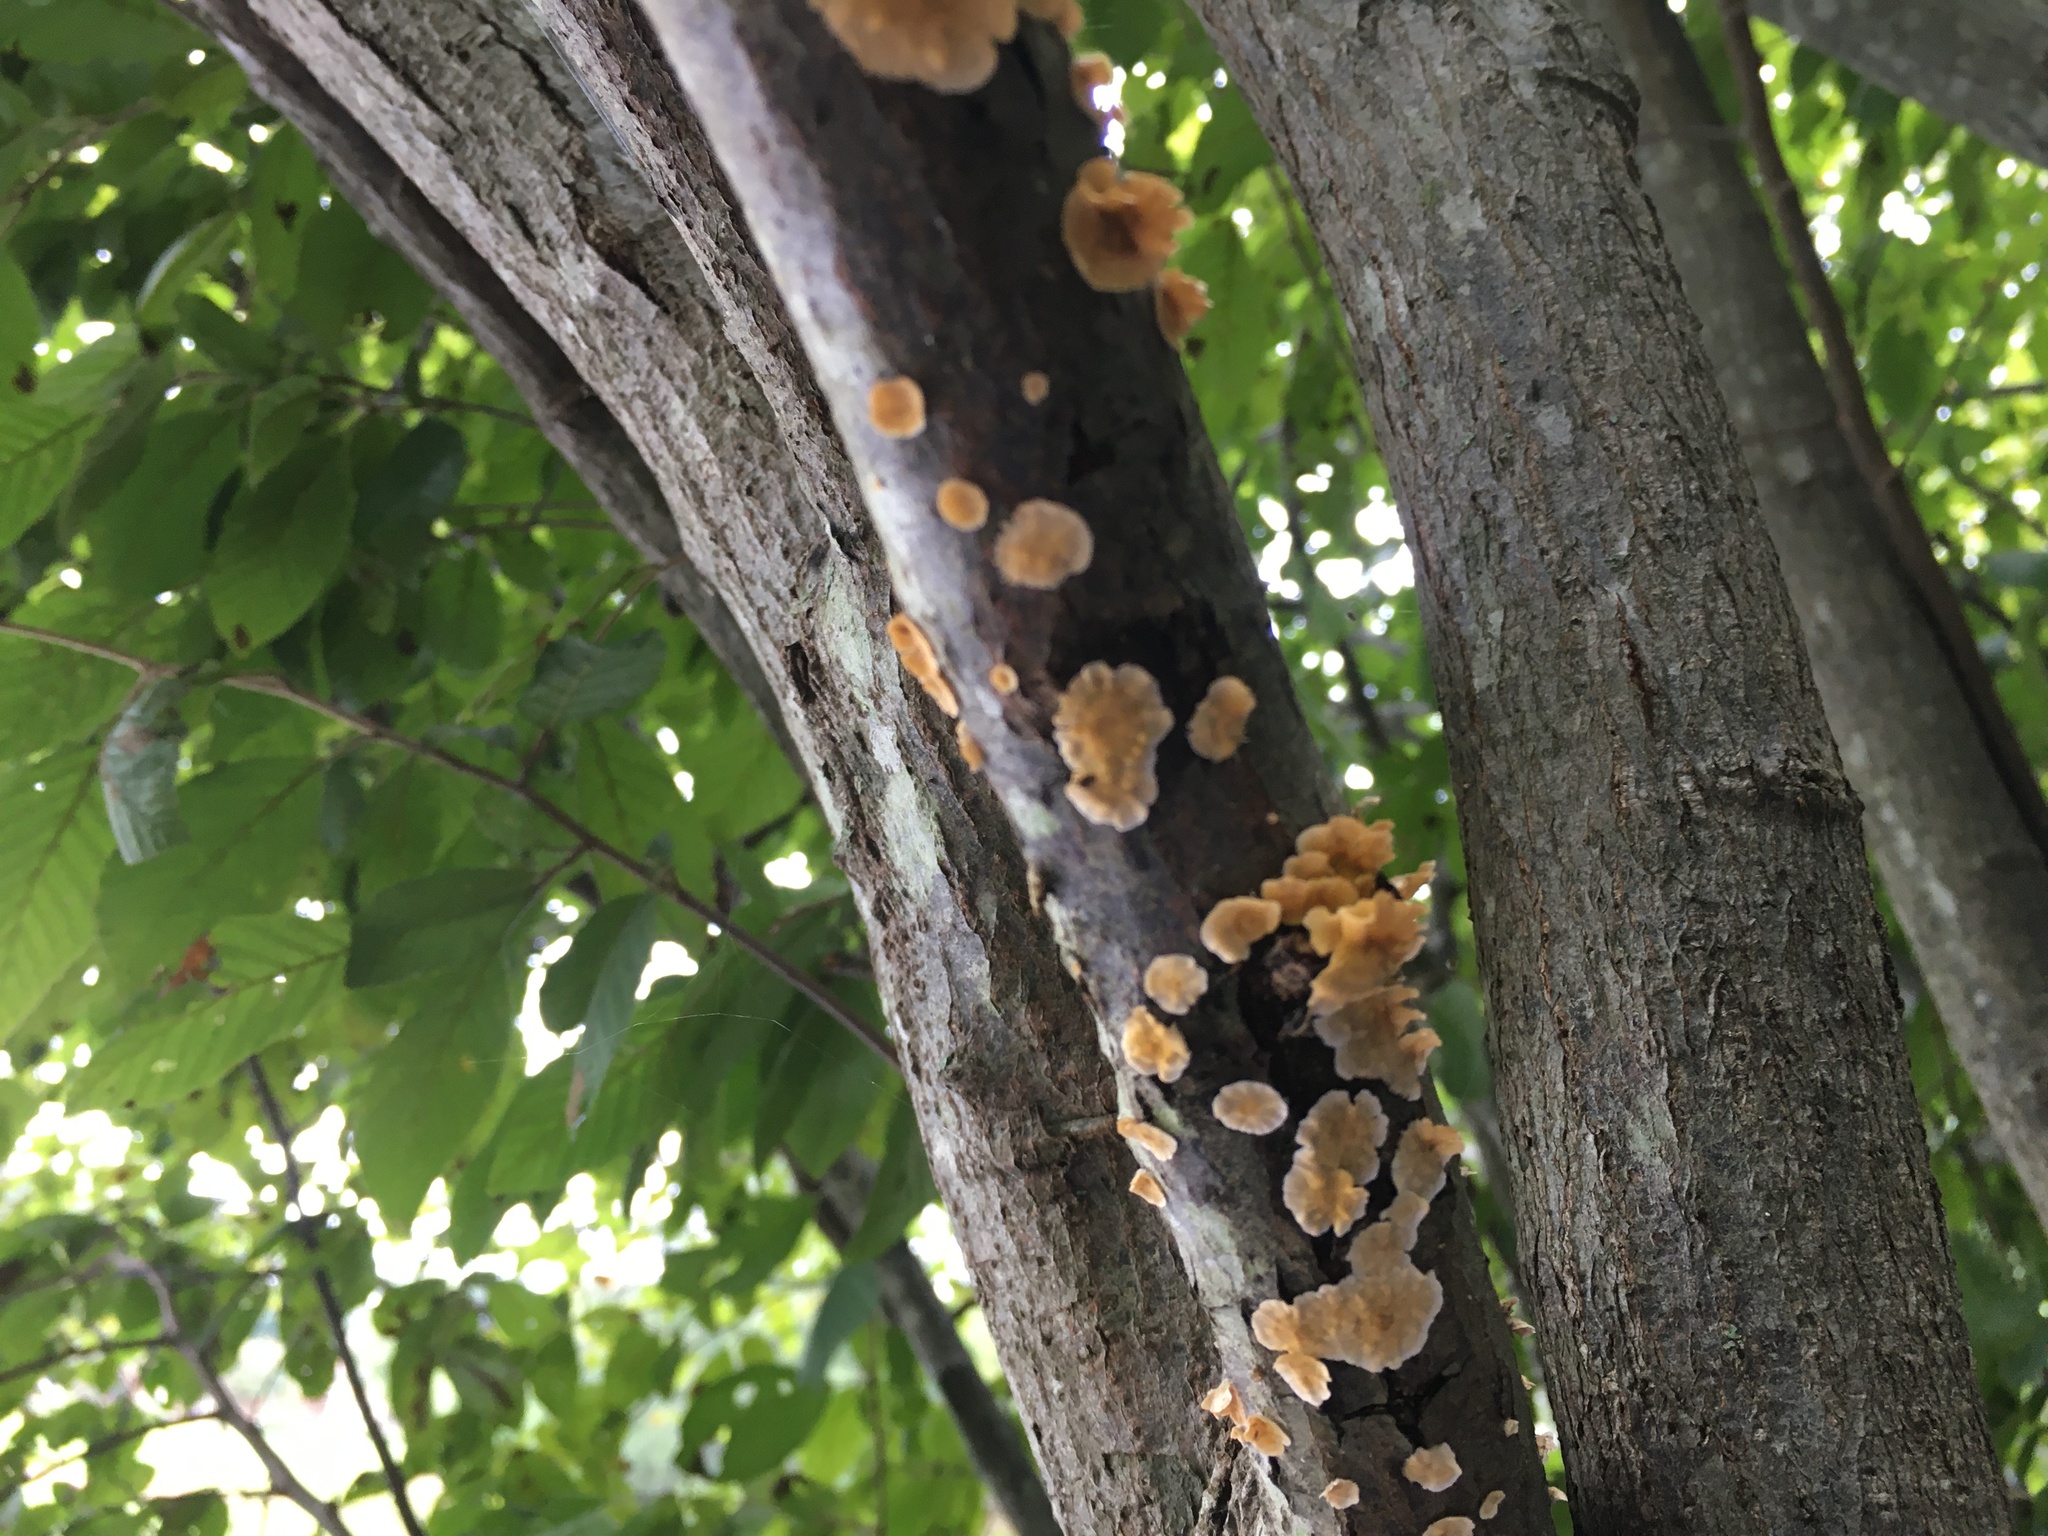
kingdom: Fungi
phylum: Basidiomycota
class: Agaricomycetes
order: Russulales
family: Stereaceae
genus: Stereum
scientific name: Stereum complicatum
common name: Crowded parchment
